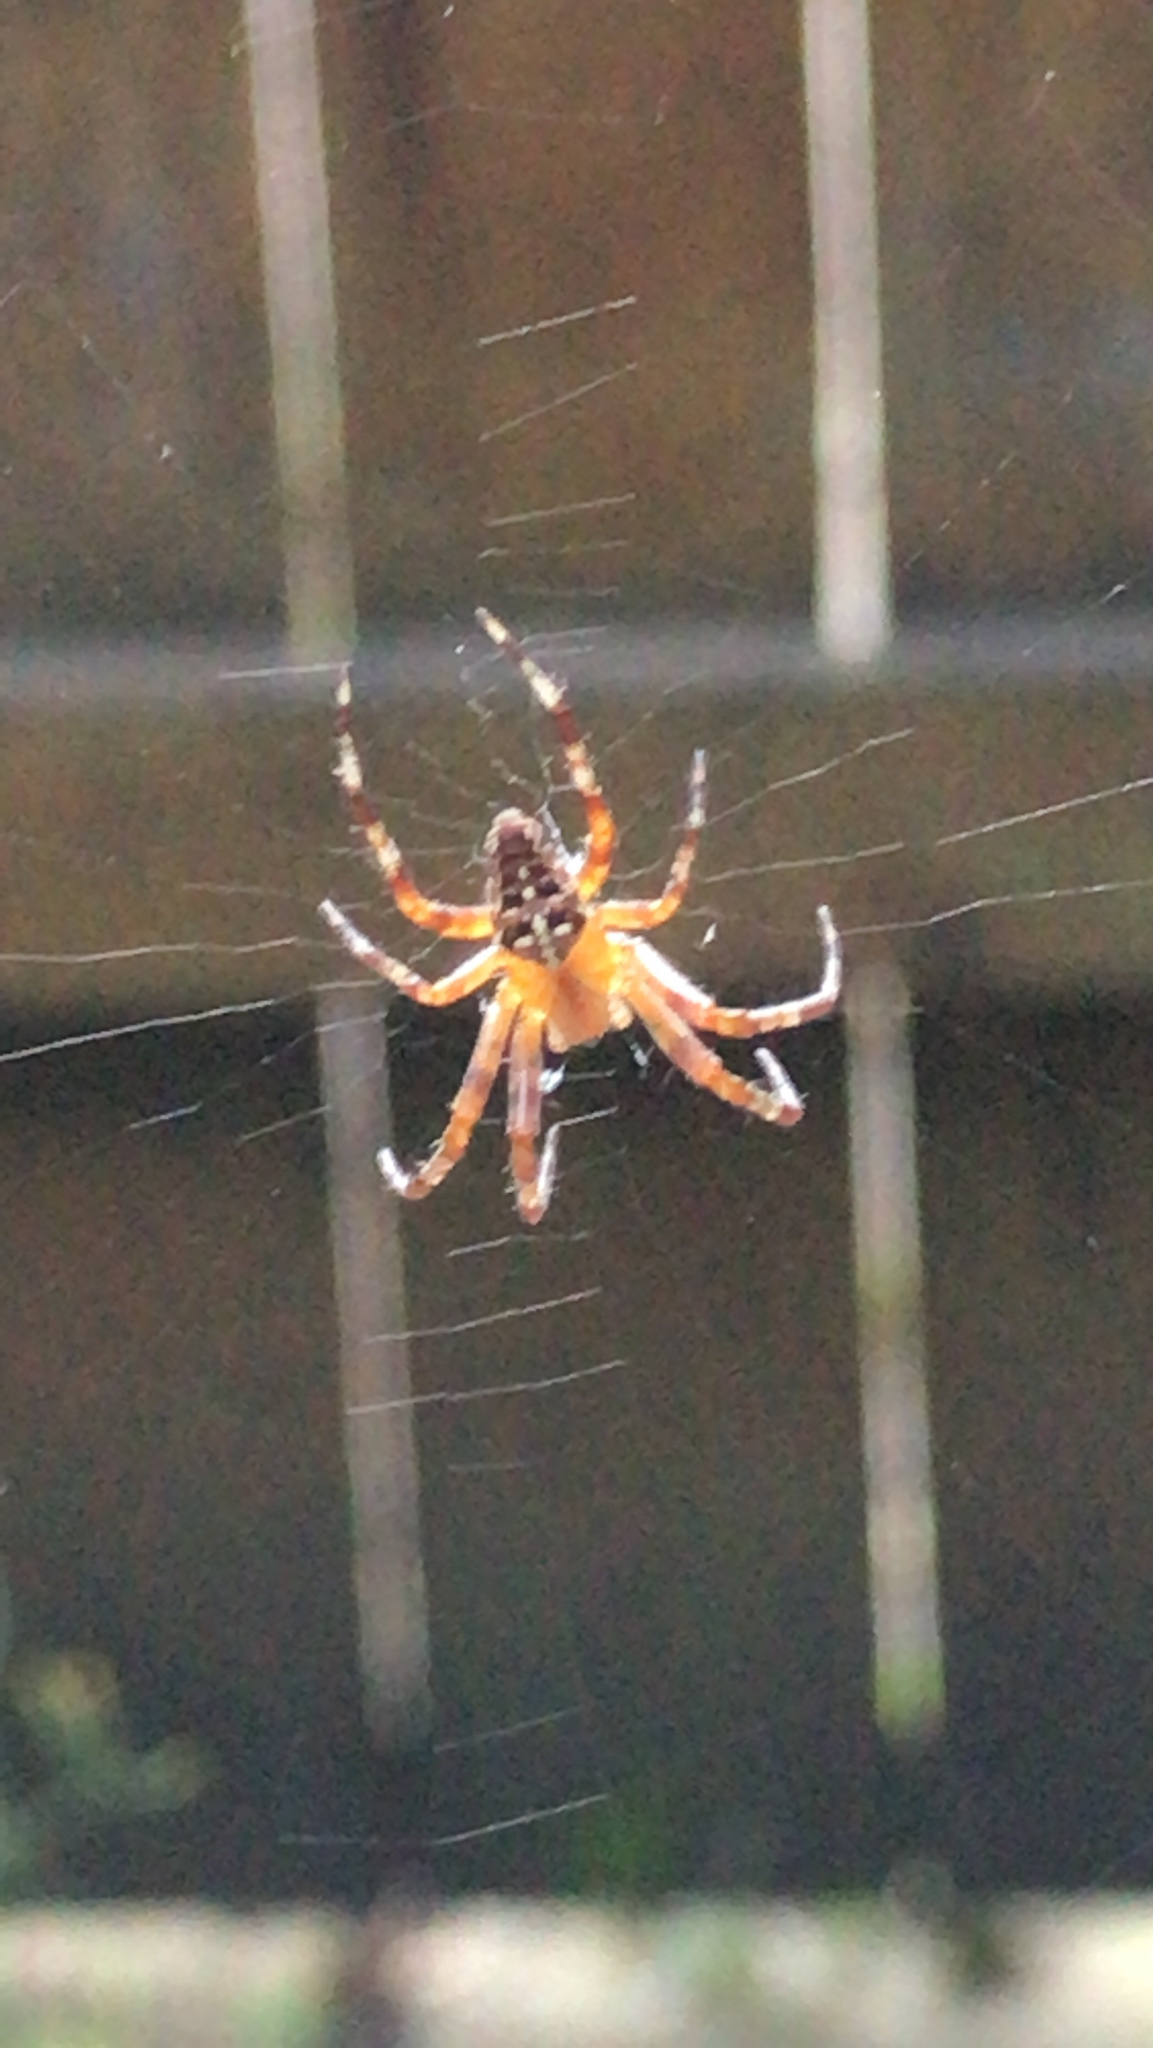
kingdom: Animalia
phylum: Arthropoda
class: Arachnida
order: Araneae
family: Araneidae
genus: Araneus
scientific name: Araneus diadematus
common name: Cross orbweaver
